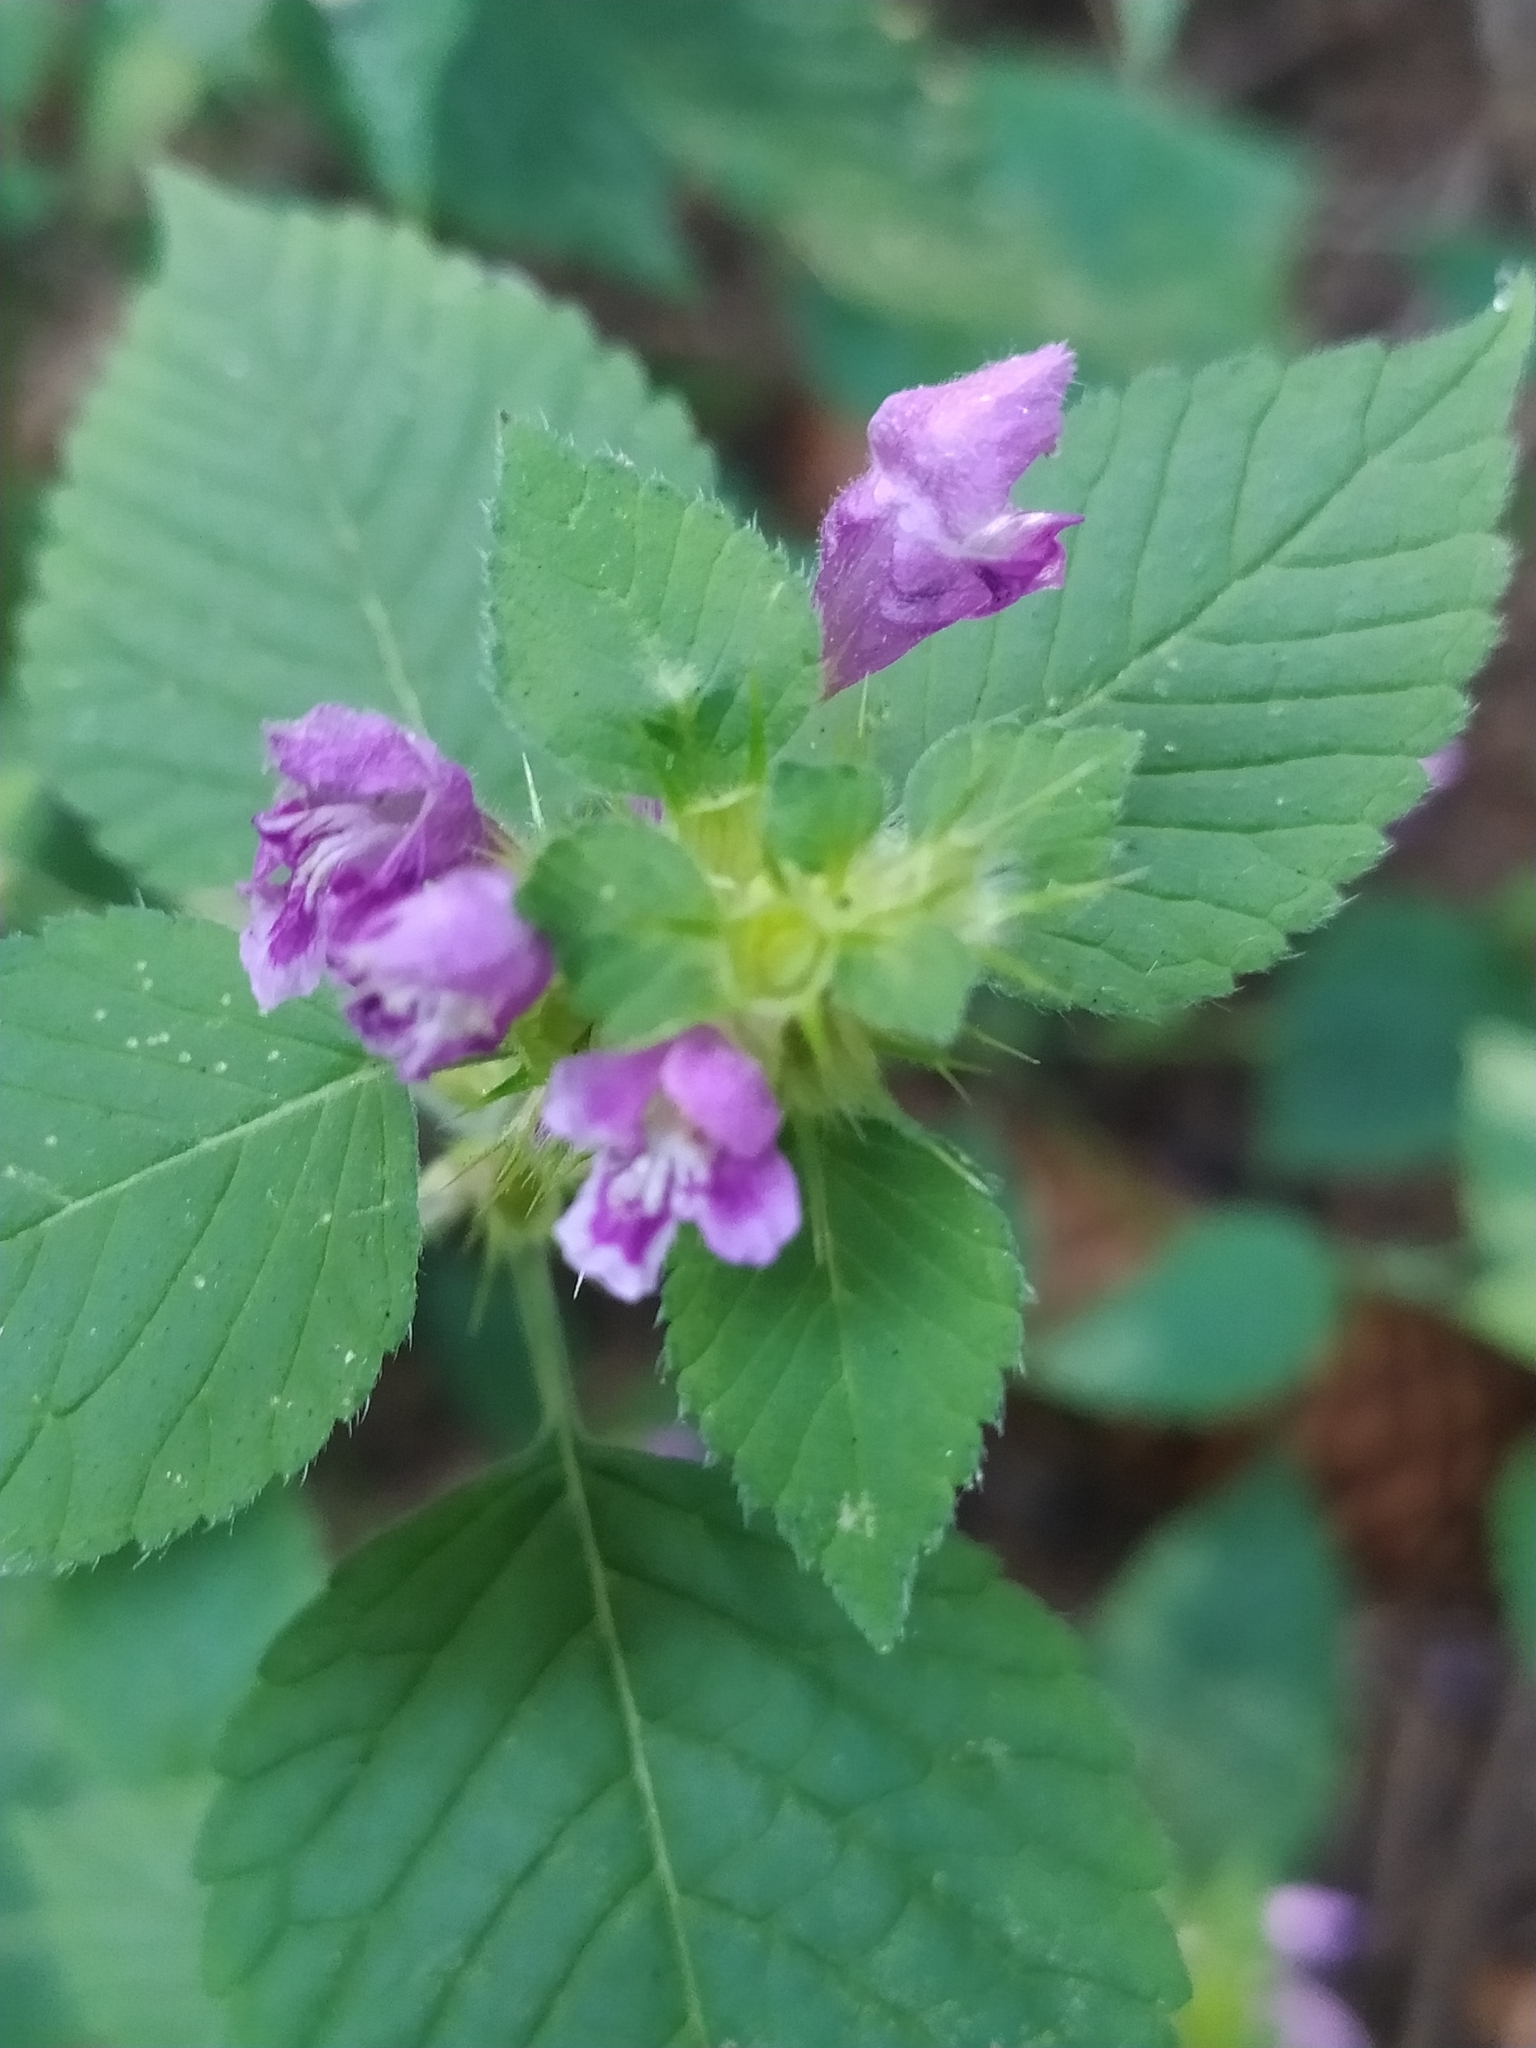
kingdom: Plantae
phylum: Tracheophyta
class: Magnoliopsida
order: Lamiales
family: Lamiaceae
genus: Galeopsis
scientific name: Galeopsis pubescens
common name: Downy hemp-nettle
